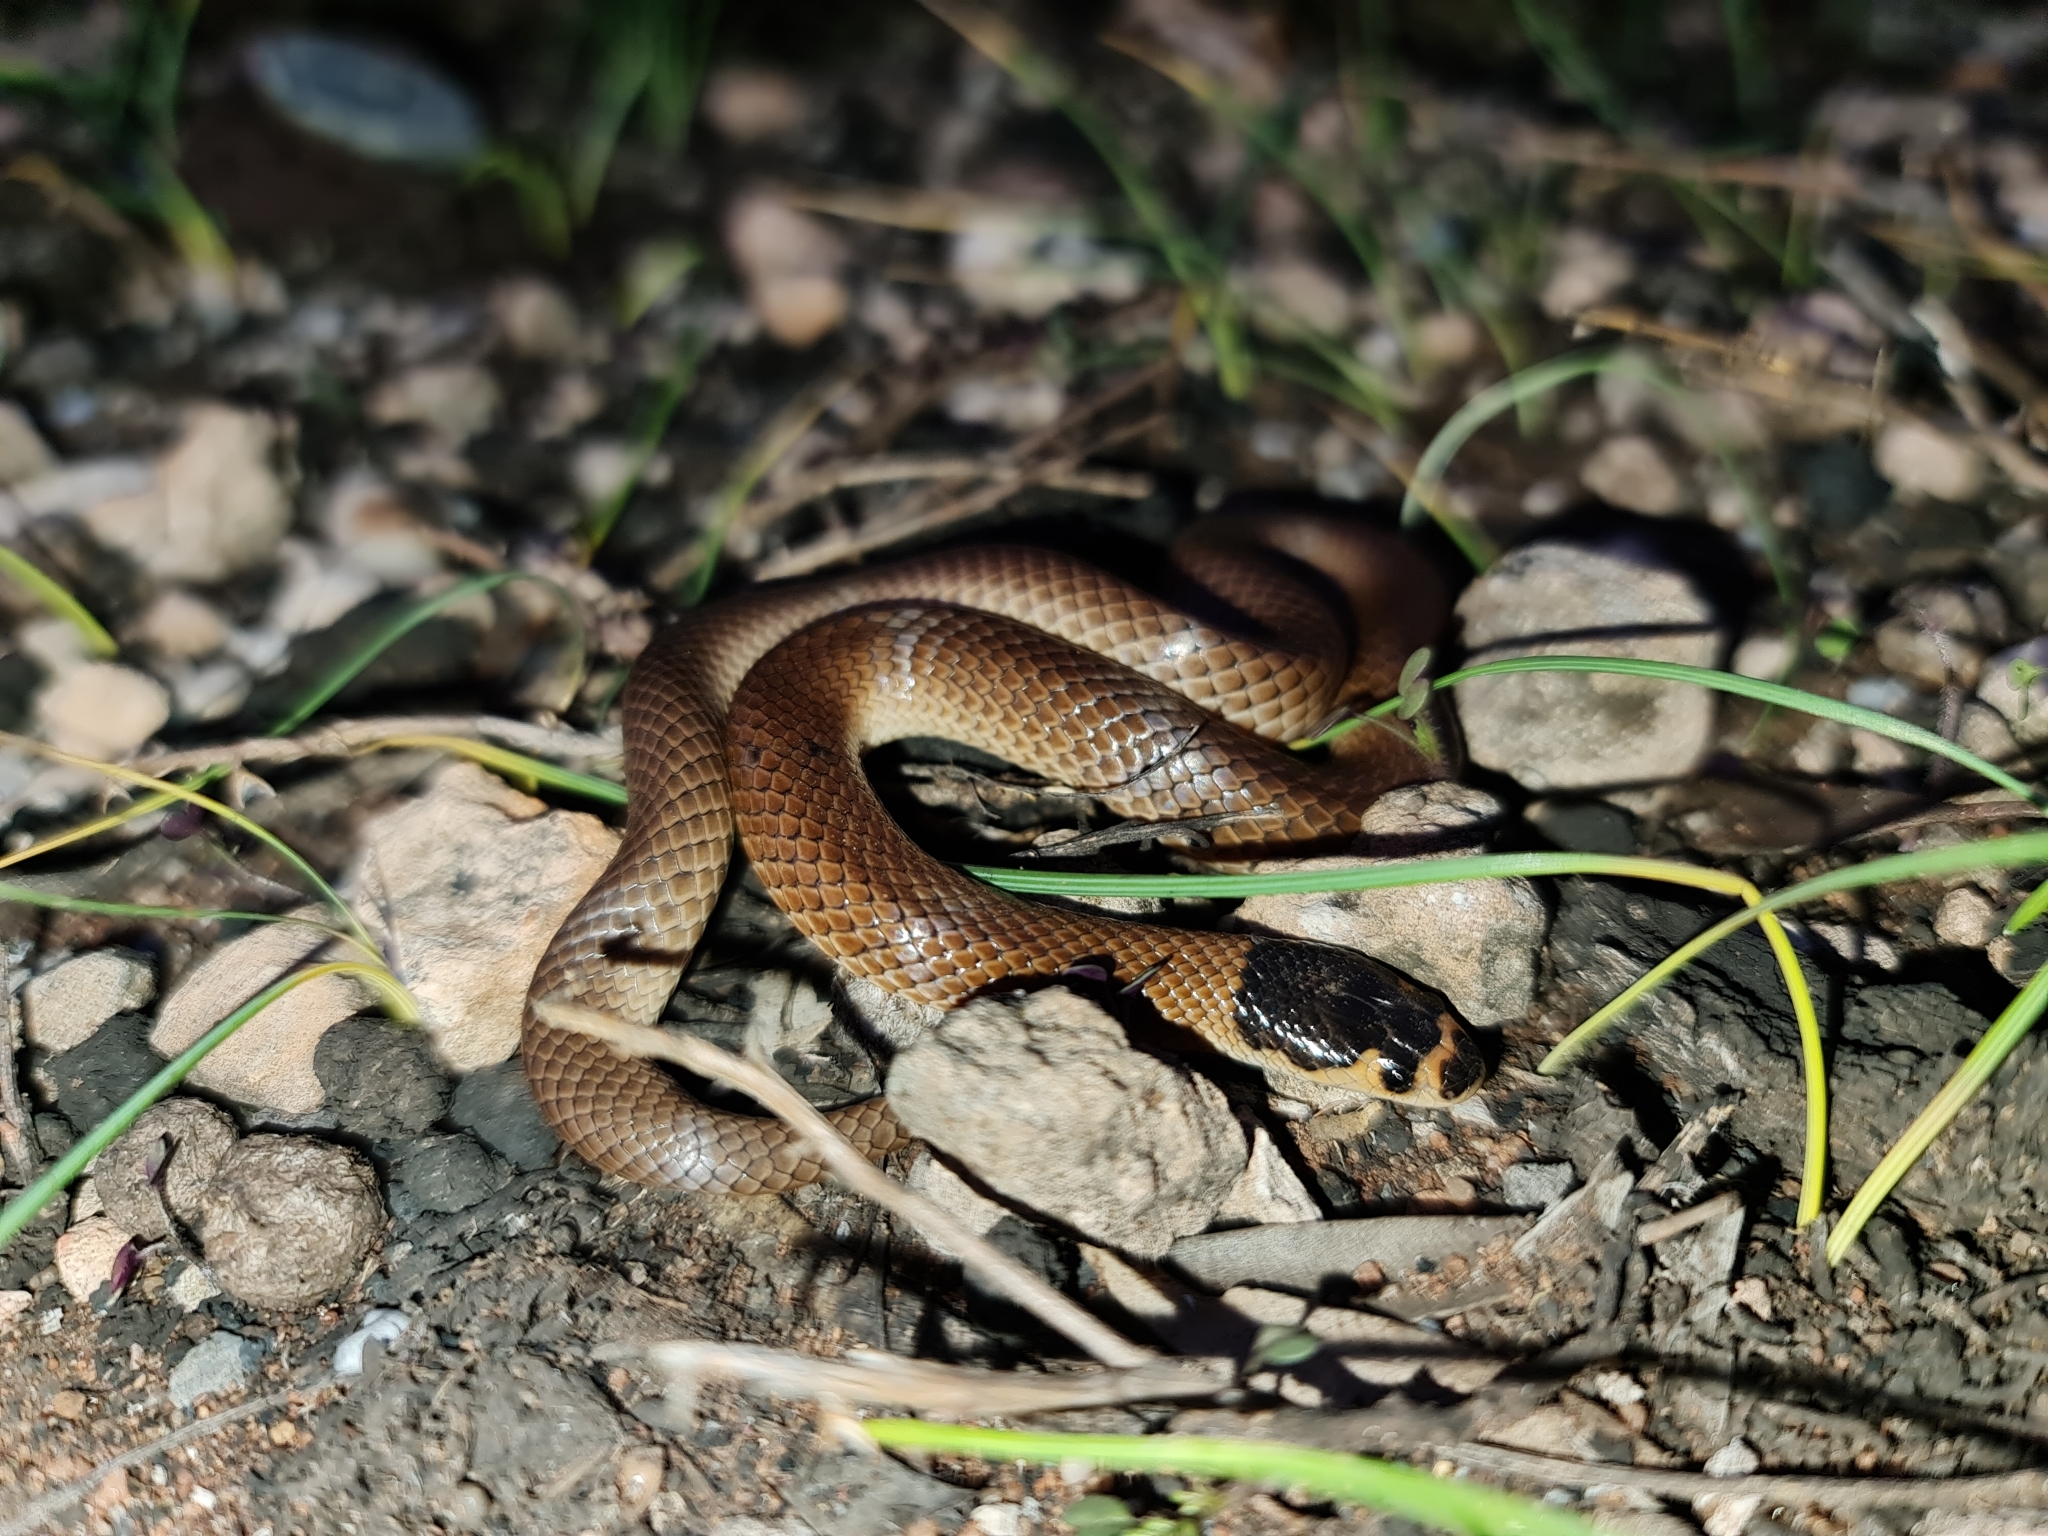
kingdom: Animalia
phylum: Chordata
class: Squamata
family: Elapidae
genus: Suta
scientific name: Suta spectabilis
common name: Bush’s hooded snake
